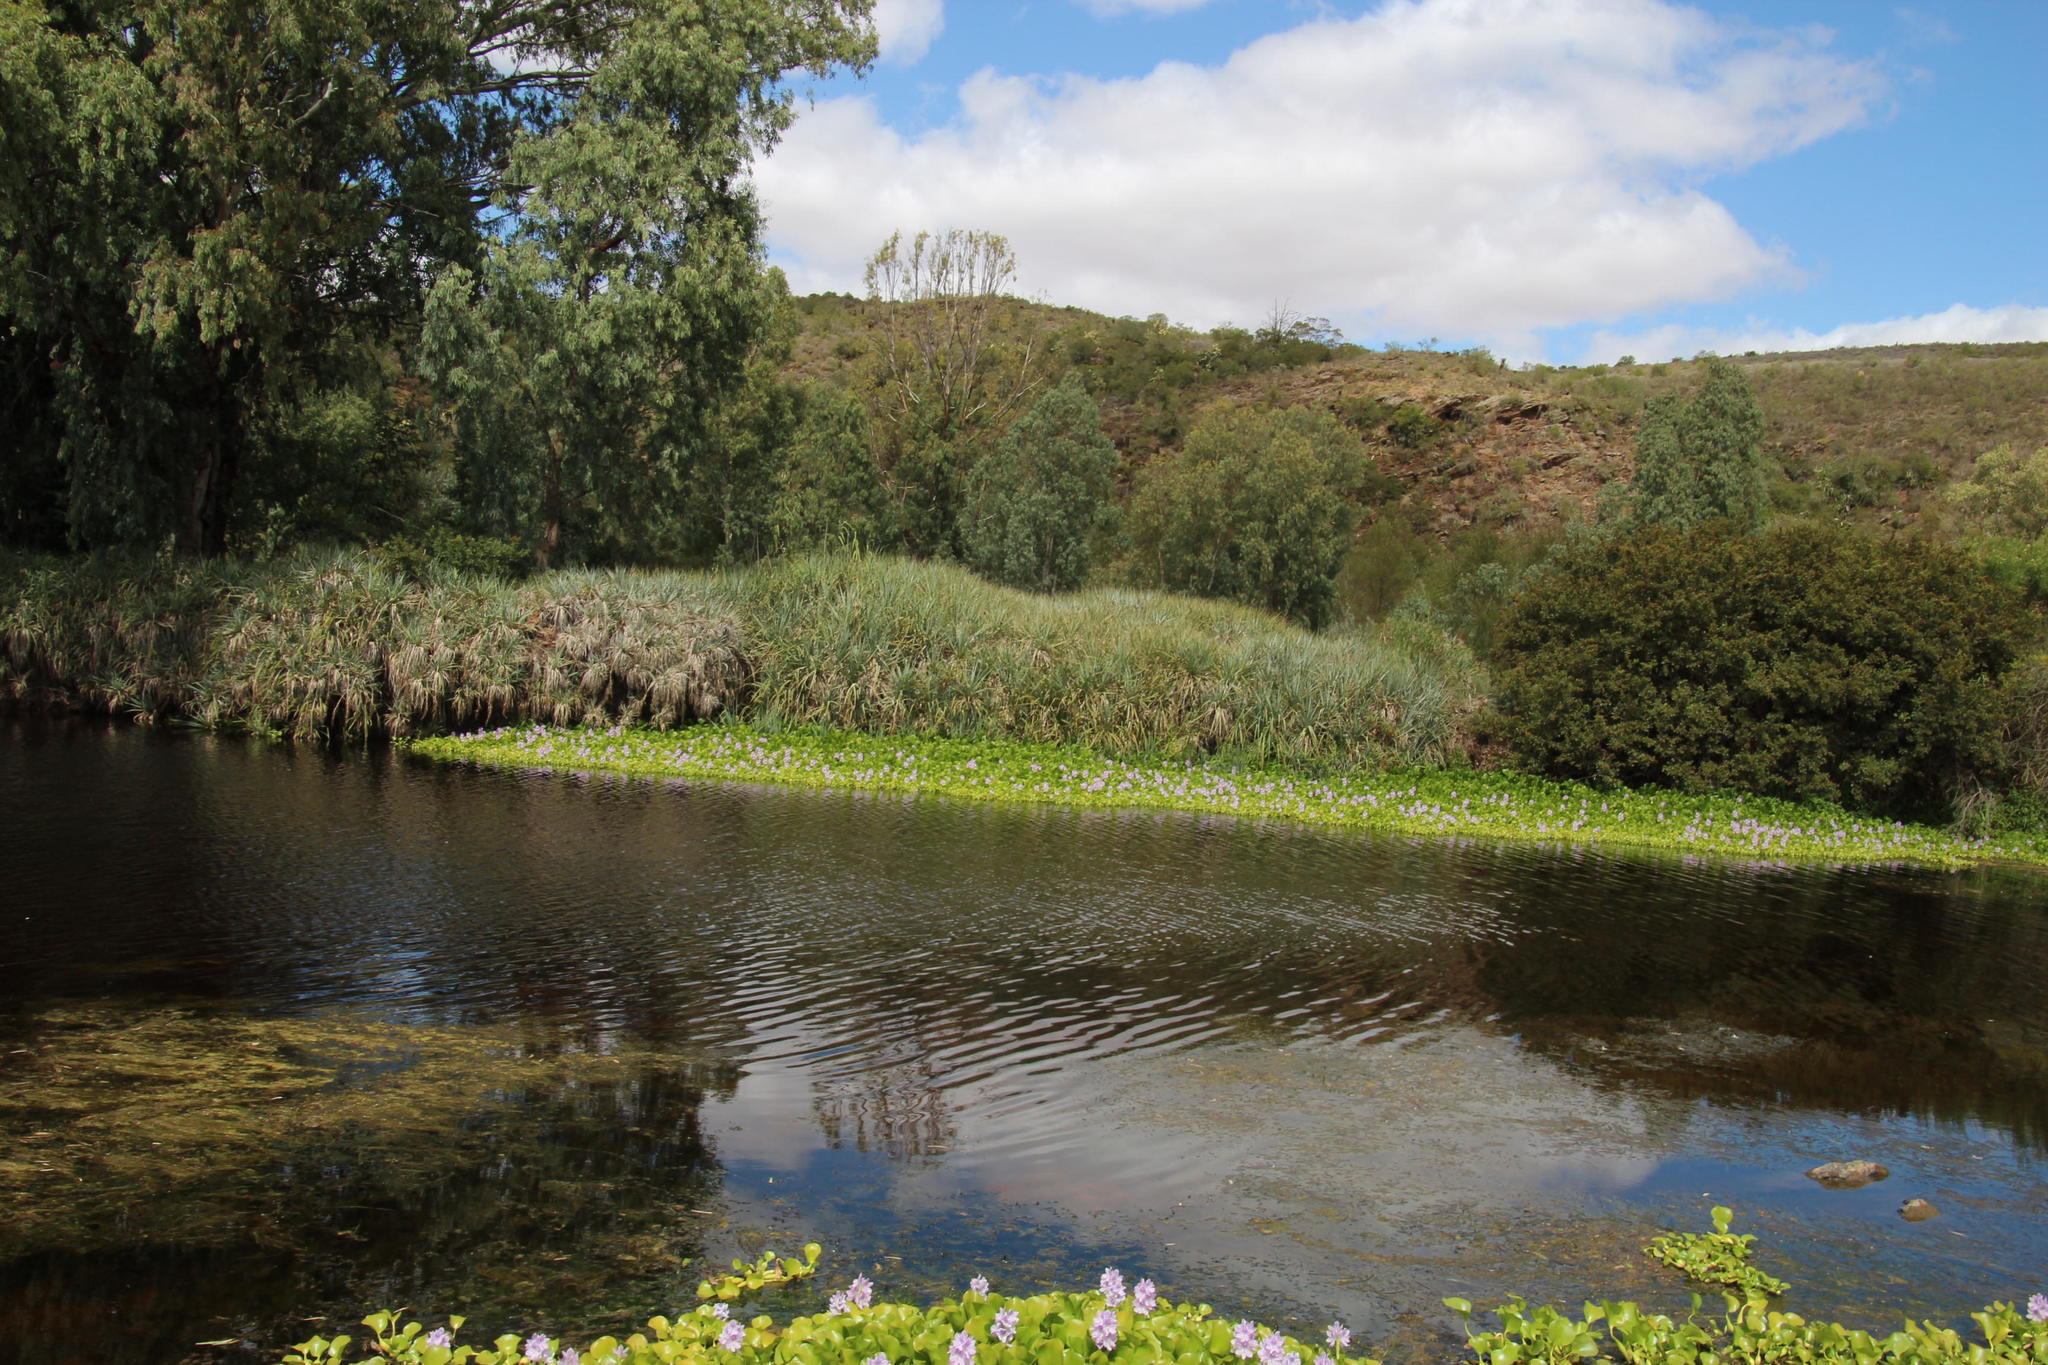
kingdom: Plantae
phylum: Tracheophyta
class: Magnoliopsida
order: Myrtales
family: Myrtaceae
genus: Eucalyptus
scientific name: Eucalyptus camaldulensis
